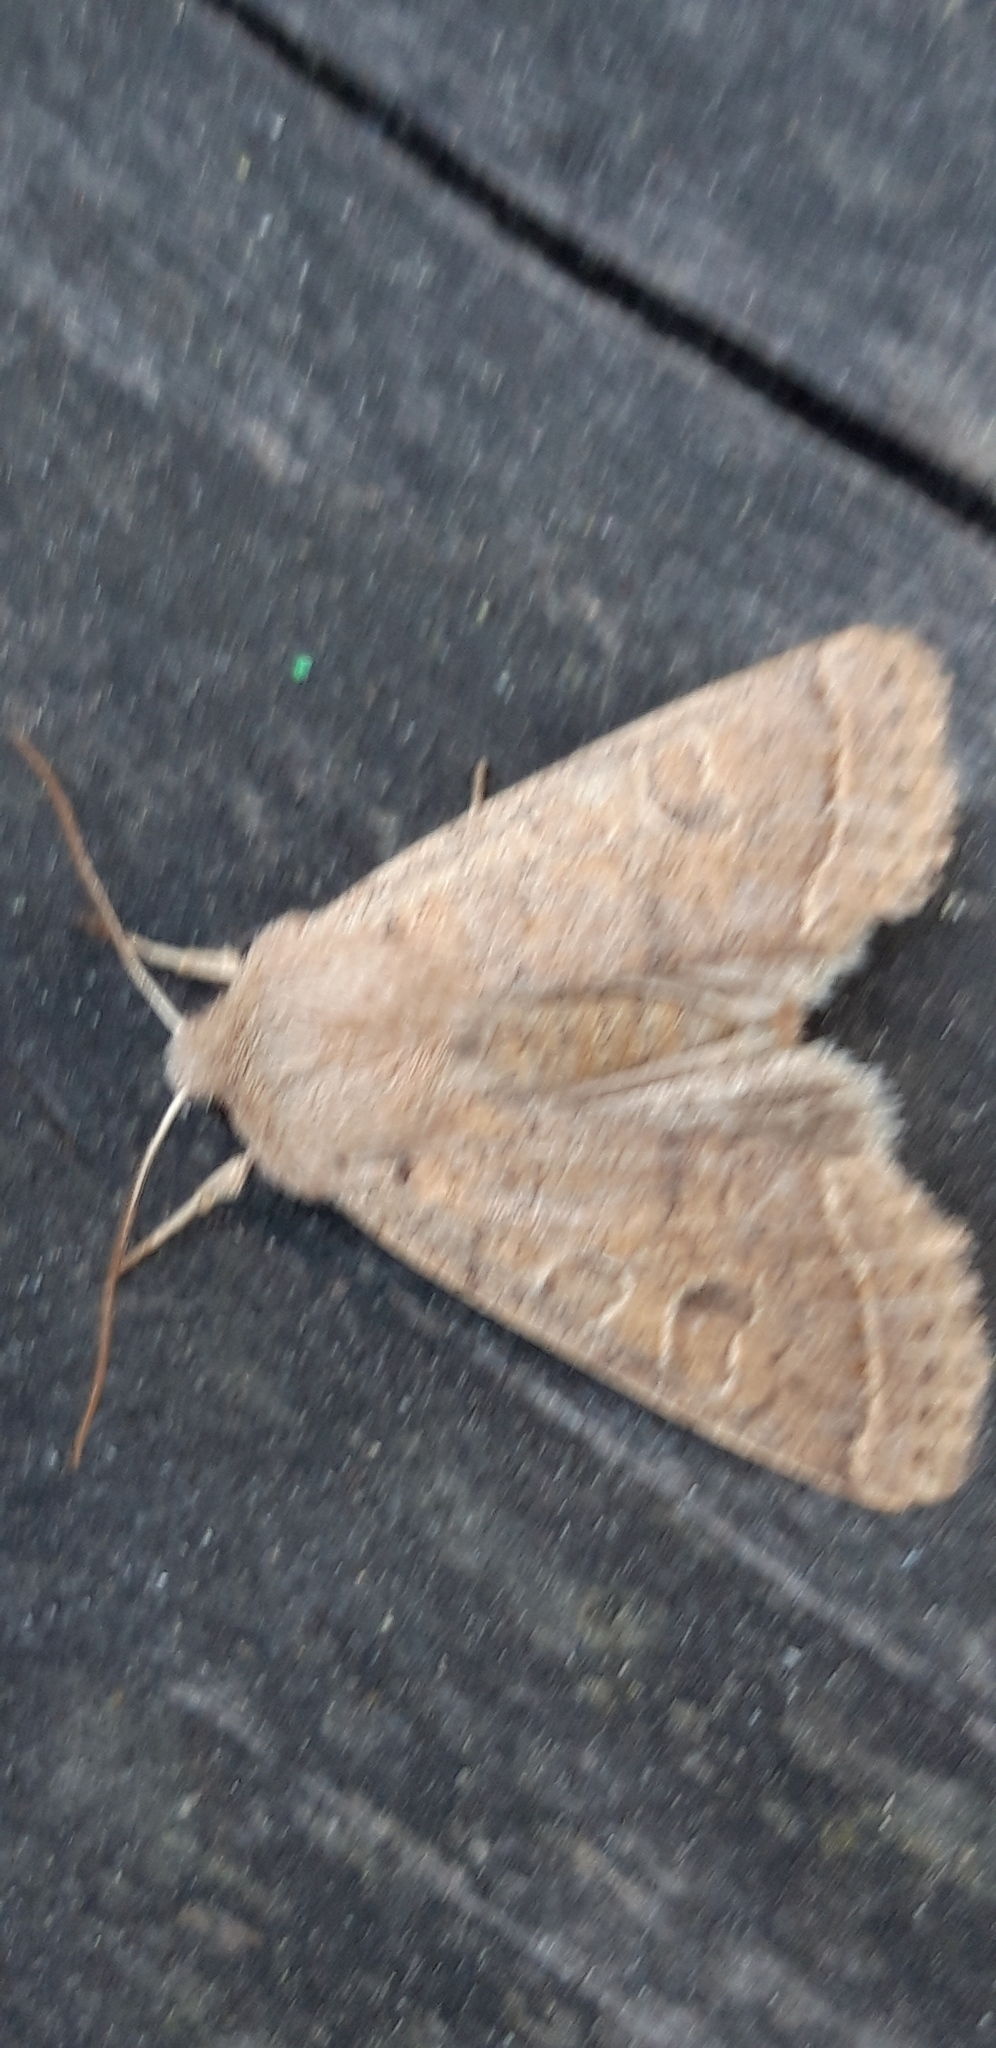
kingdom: Animalia
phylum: Arthropoda
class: Insecta
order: Lepidoptera
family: Noctuidae
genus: Orthosia
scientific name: Orthosia cerasi
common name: Common quaker
